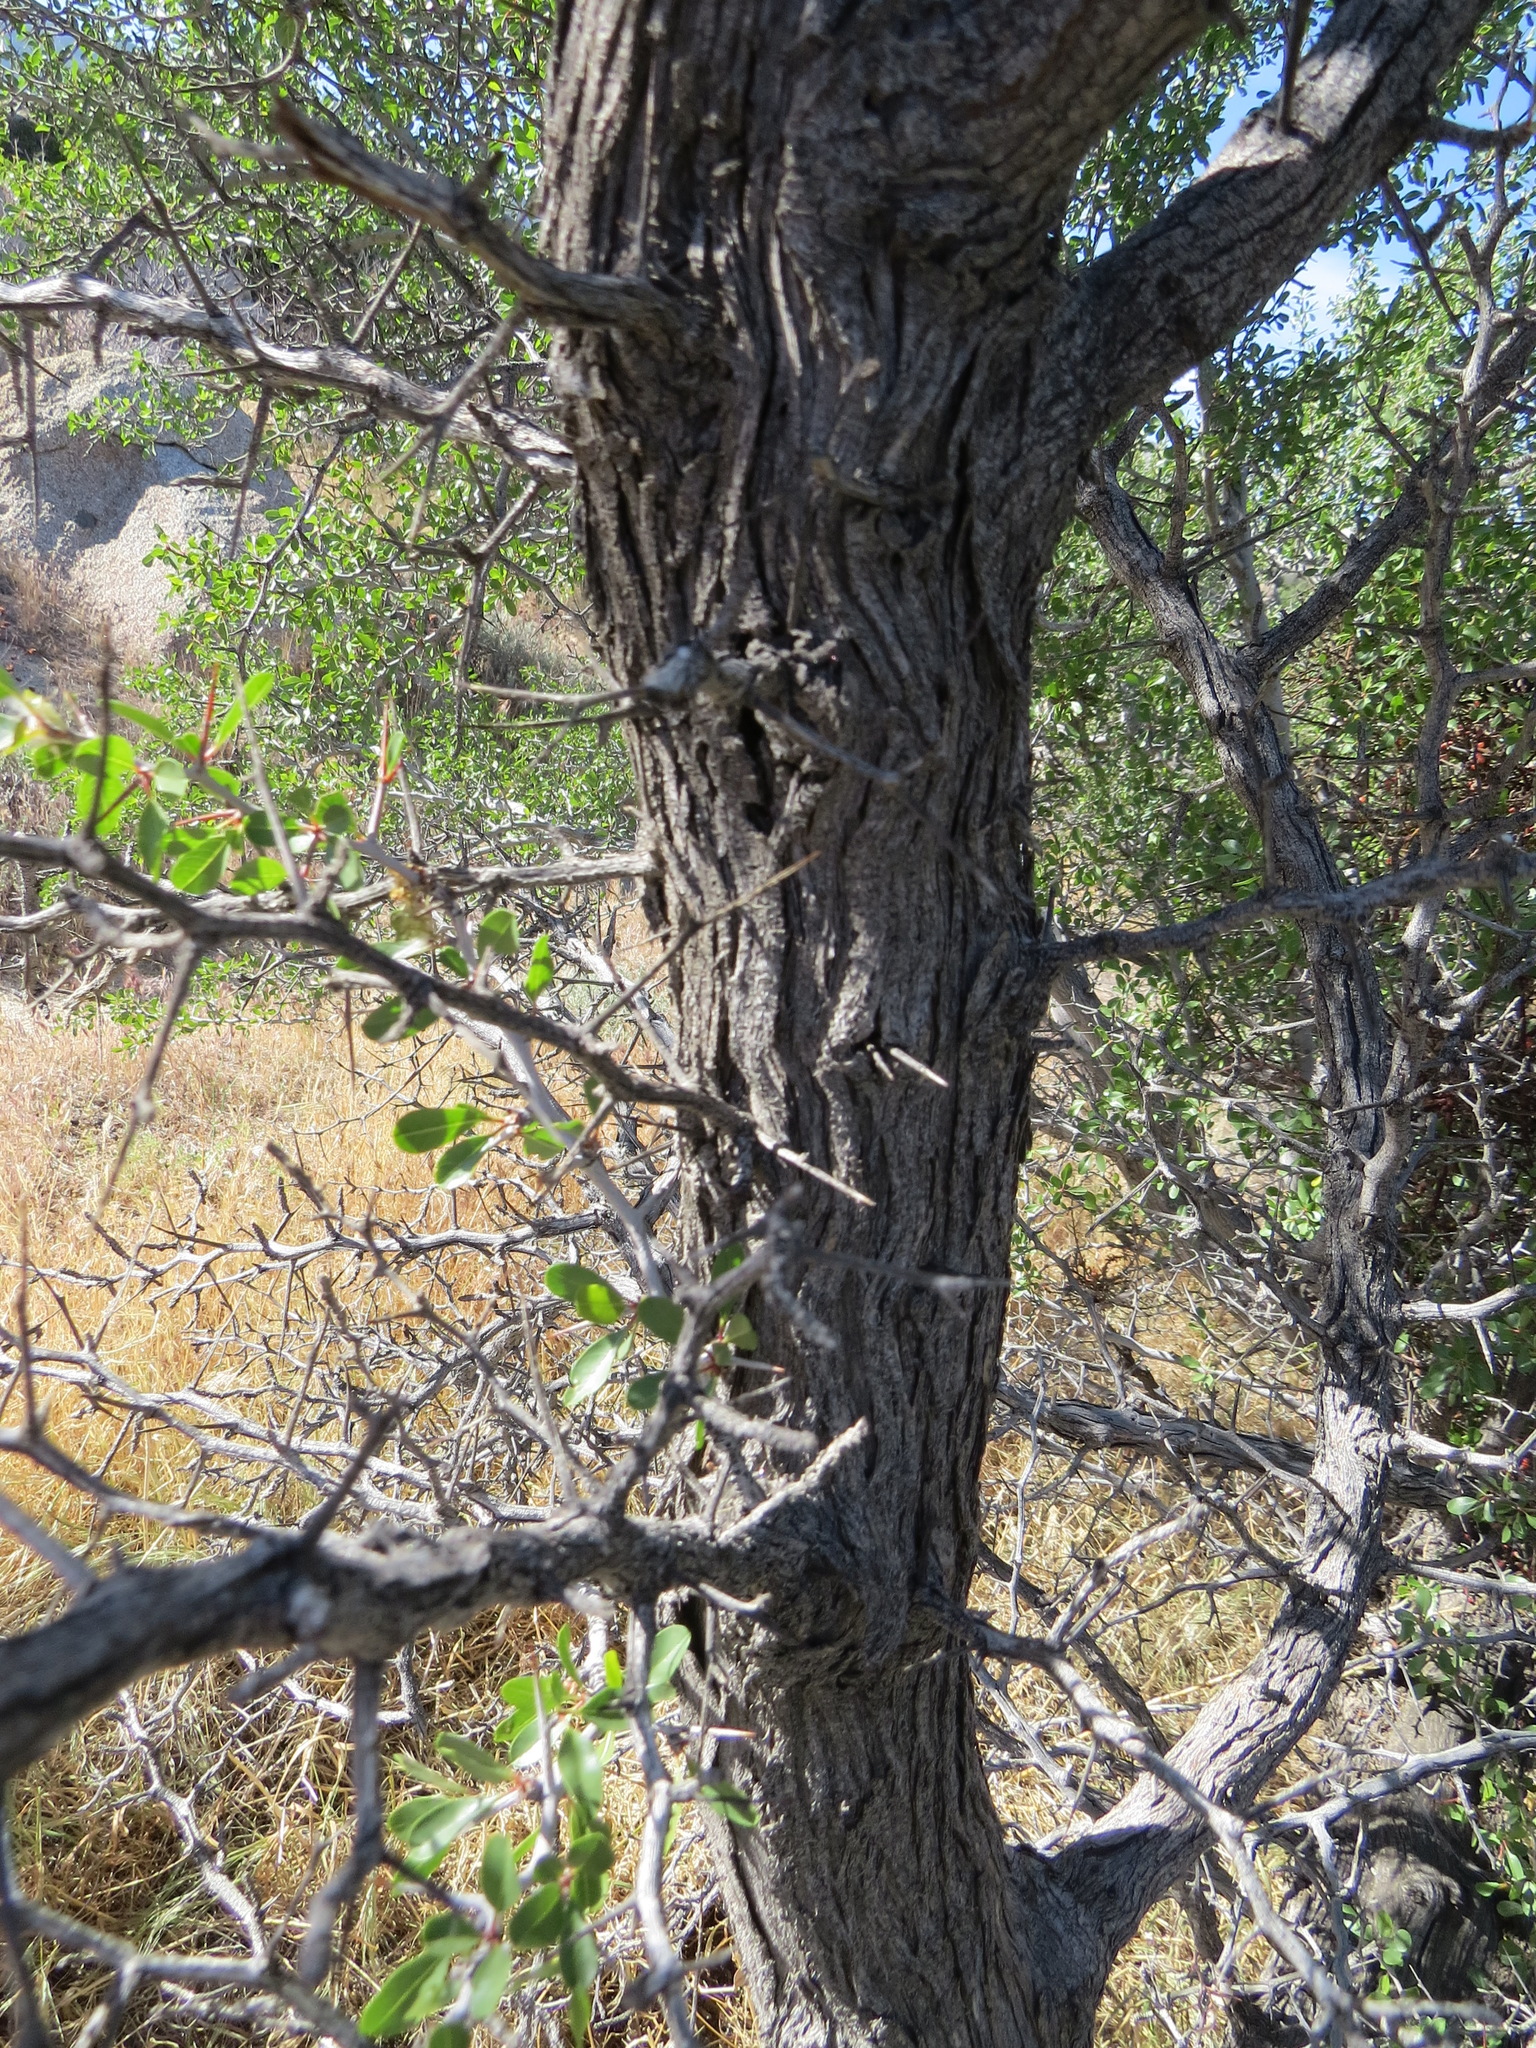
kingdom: Plantae
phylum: Tracheophyta
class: Magnoliopsida
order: Rosales
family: Rhamnaceae
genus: Pseudoziziphus
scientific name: Pseudoziziphus parryi
